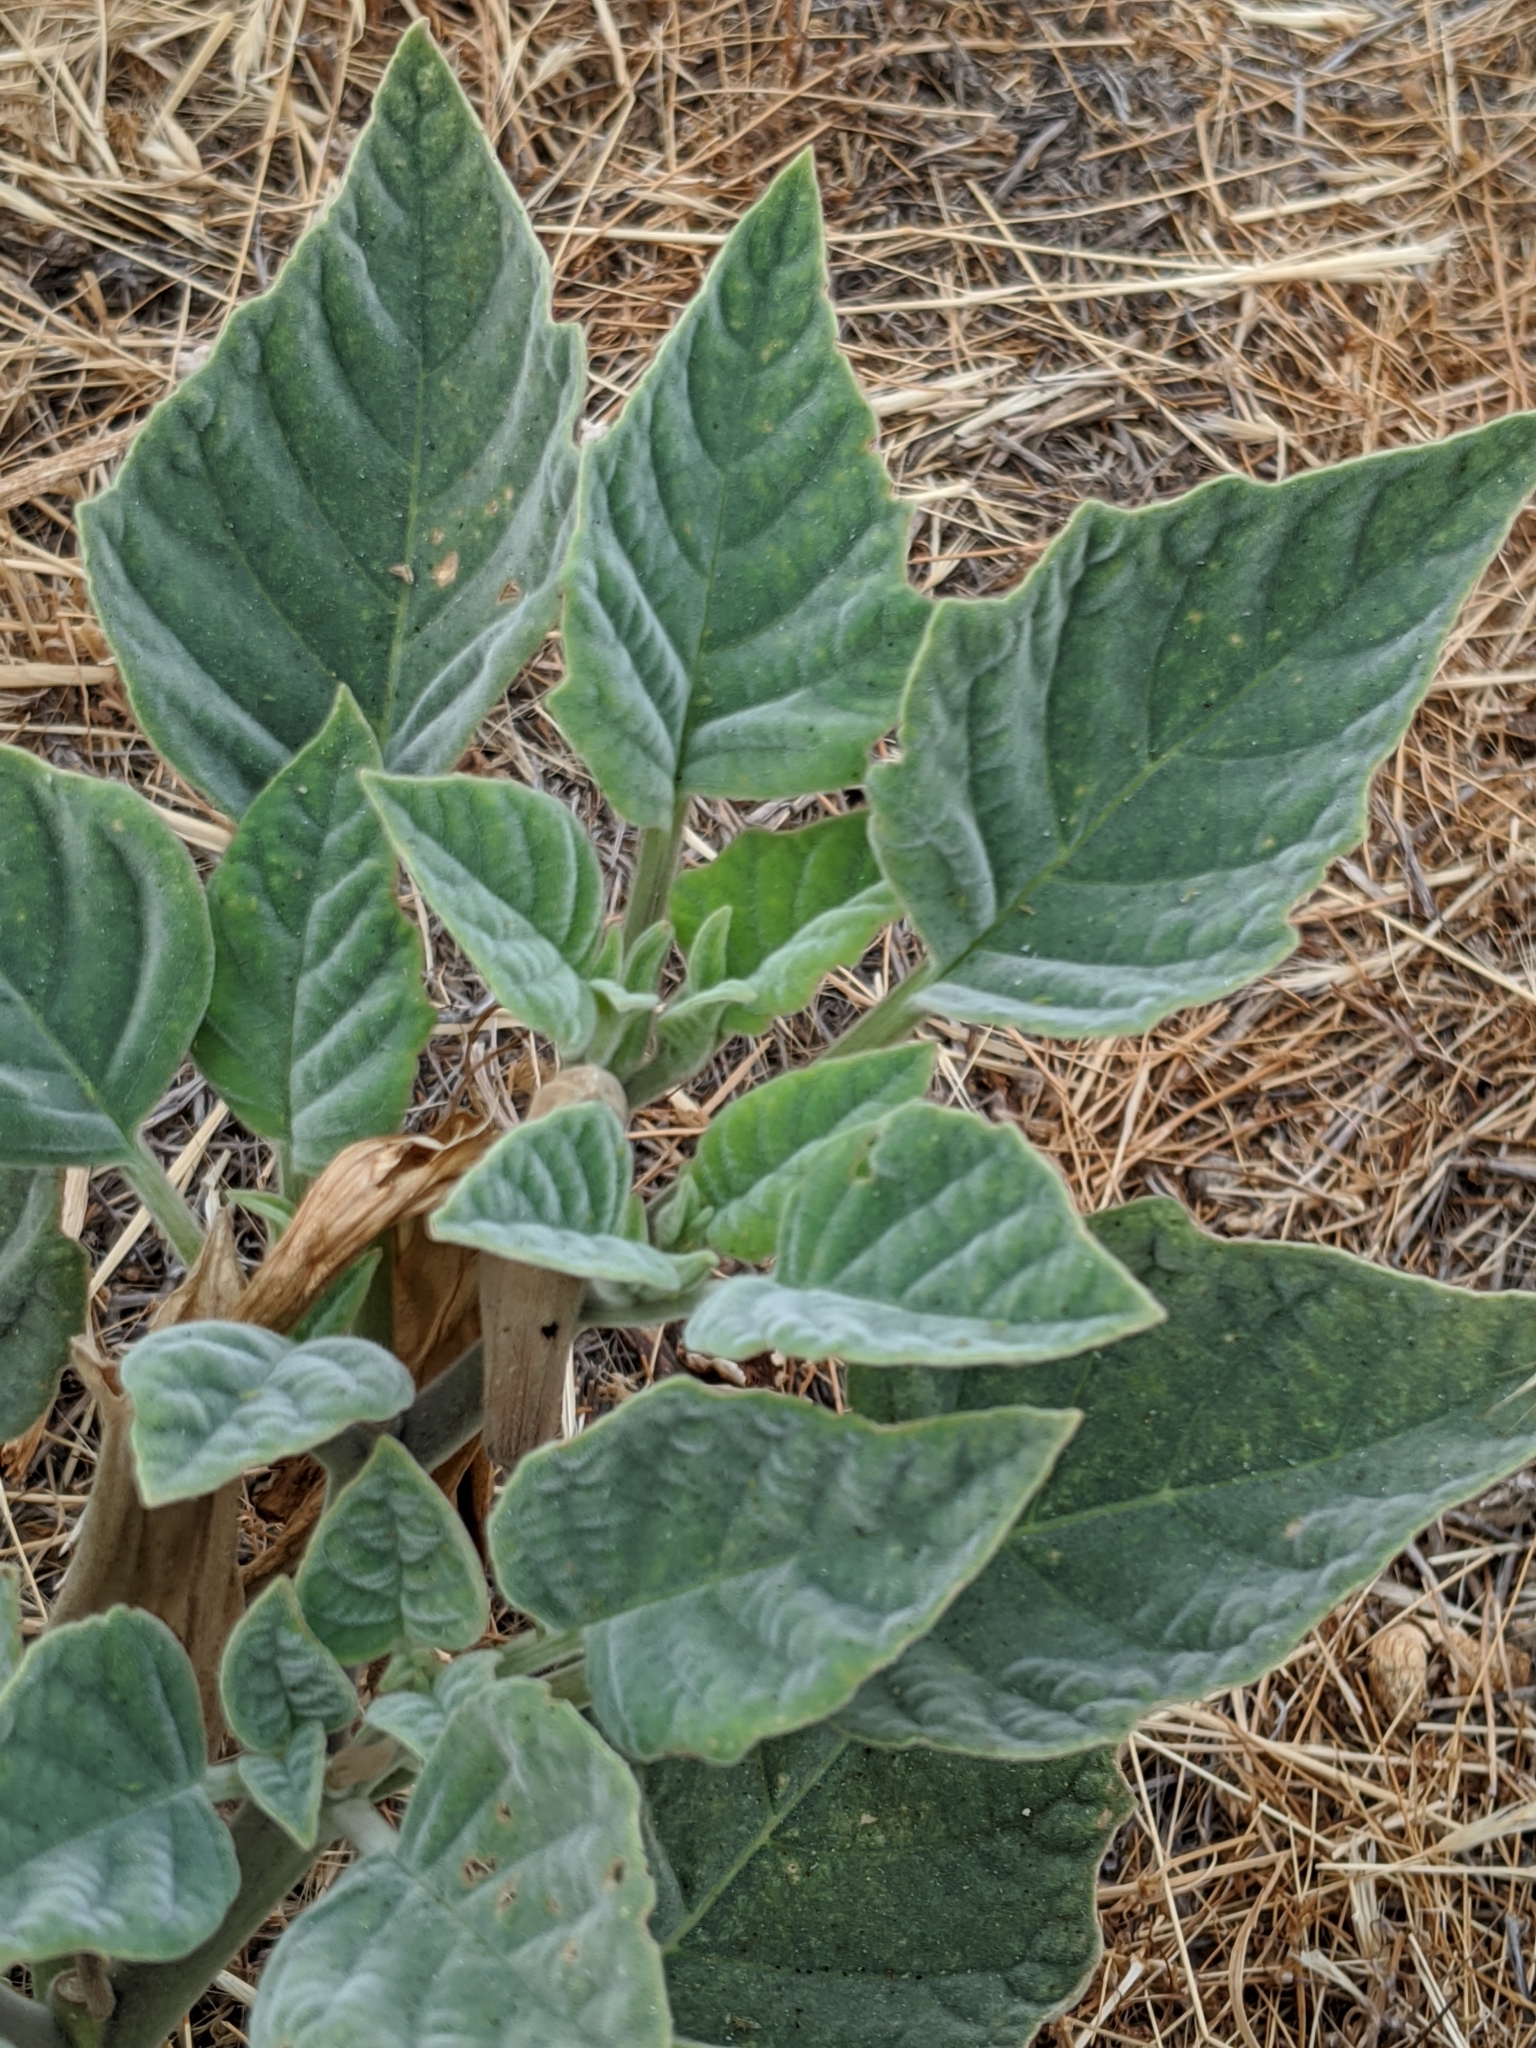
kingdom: Plantae
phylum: Tracheophyta
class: Magnoliopsida
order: Solanales
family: Solanaceae
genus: Datura
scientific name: Datura wrightii
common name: Sacred thorn-apple
